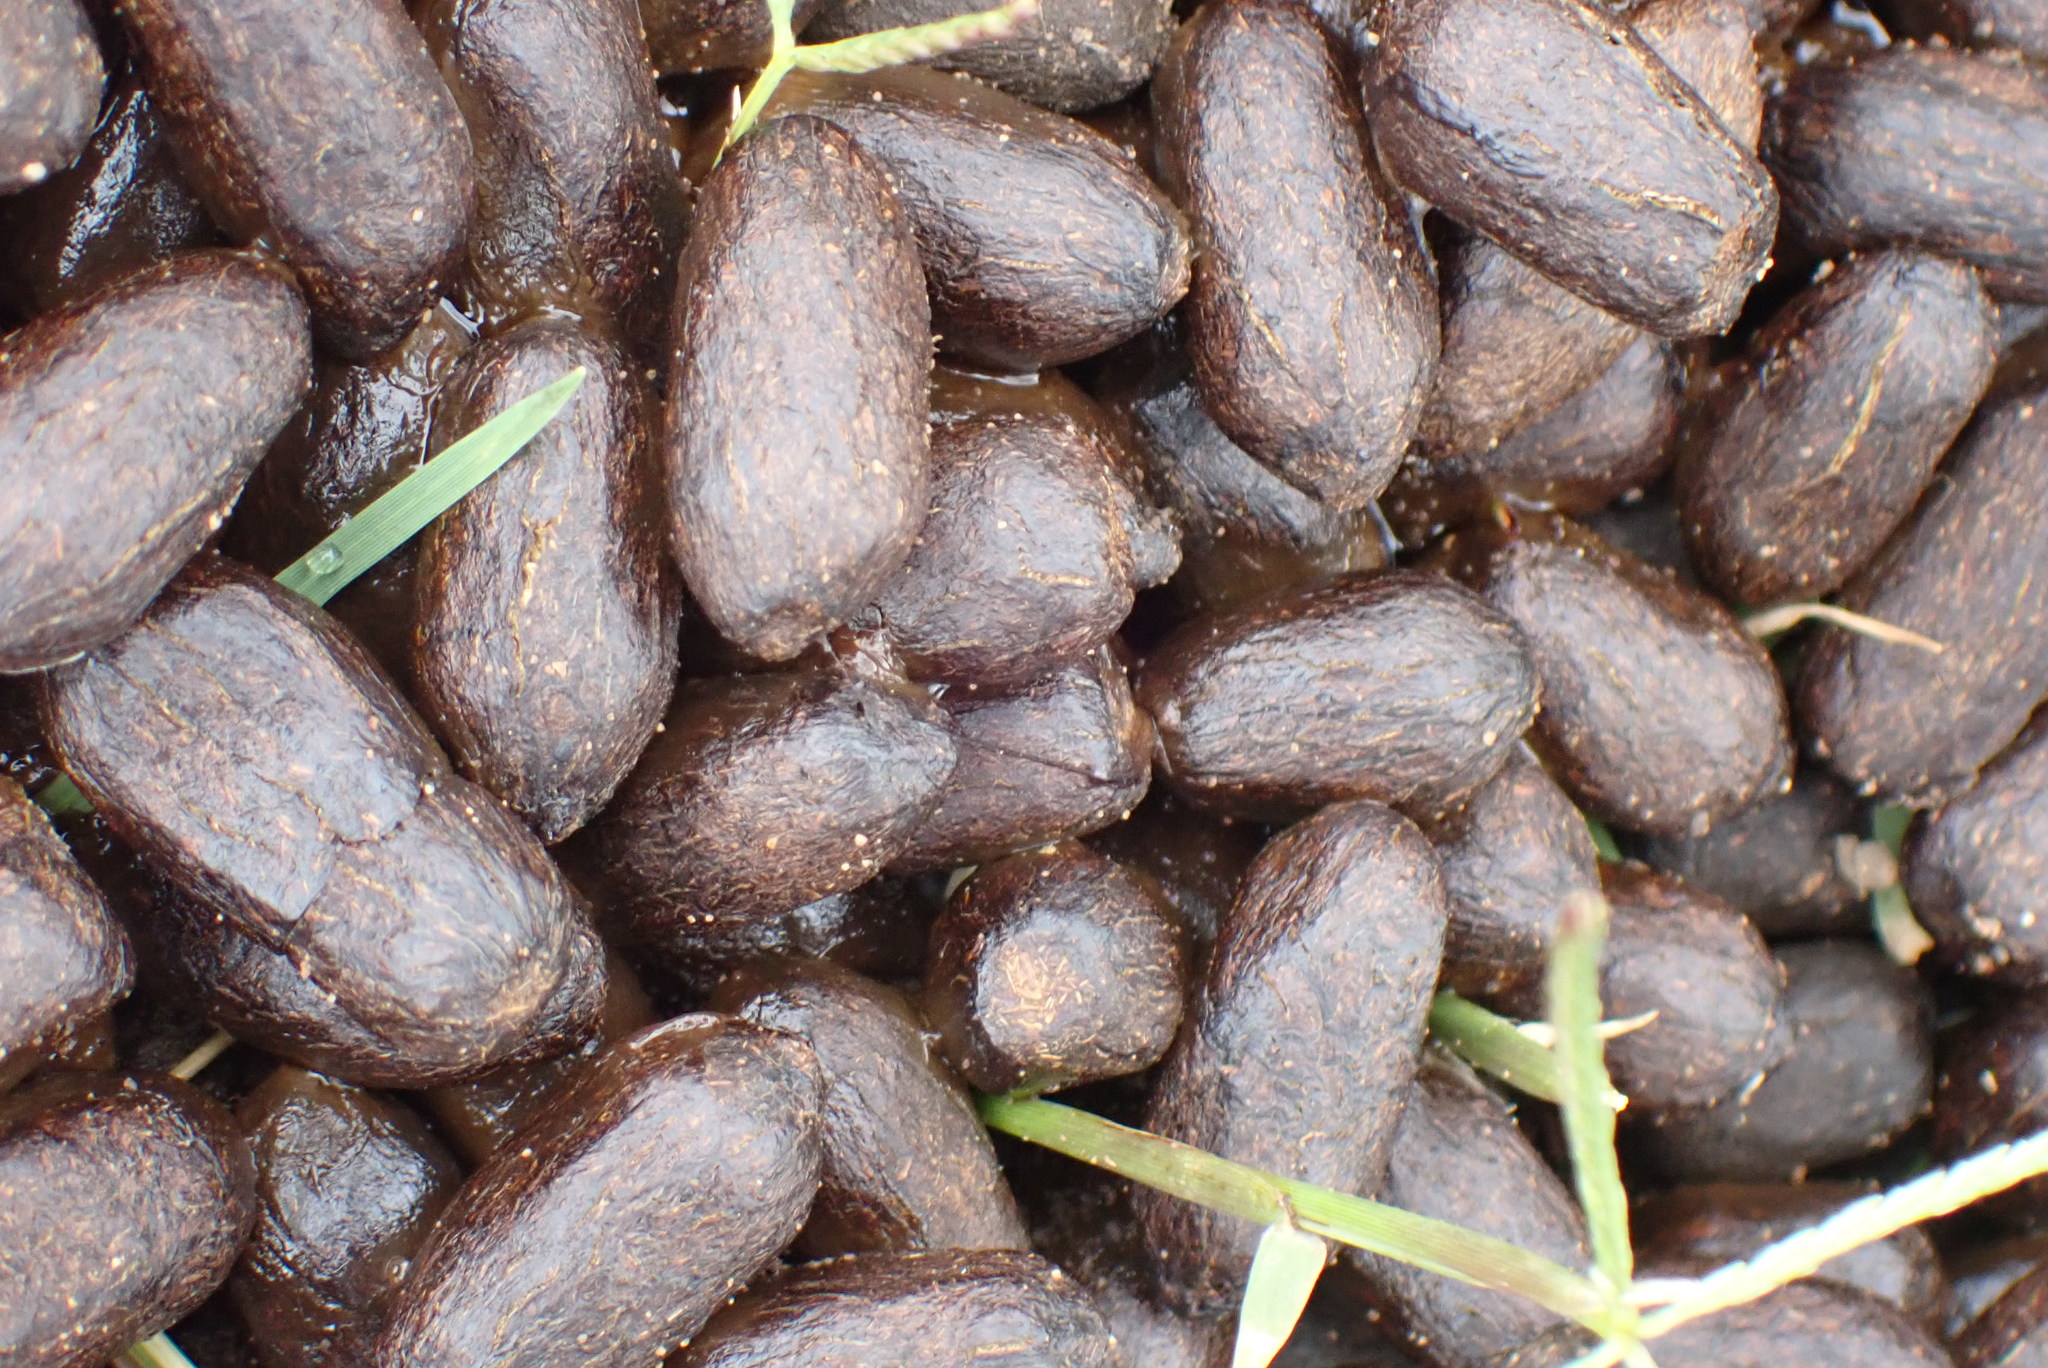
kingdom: Animalia
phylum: Chordata
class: Mammalia
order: Artiodactyla
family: Bovidae
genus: Oreotragus
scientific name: Oreotragus oreotragus
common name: Klipspringer
